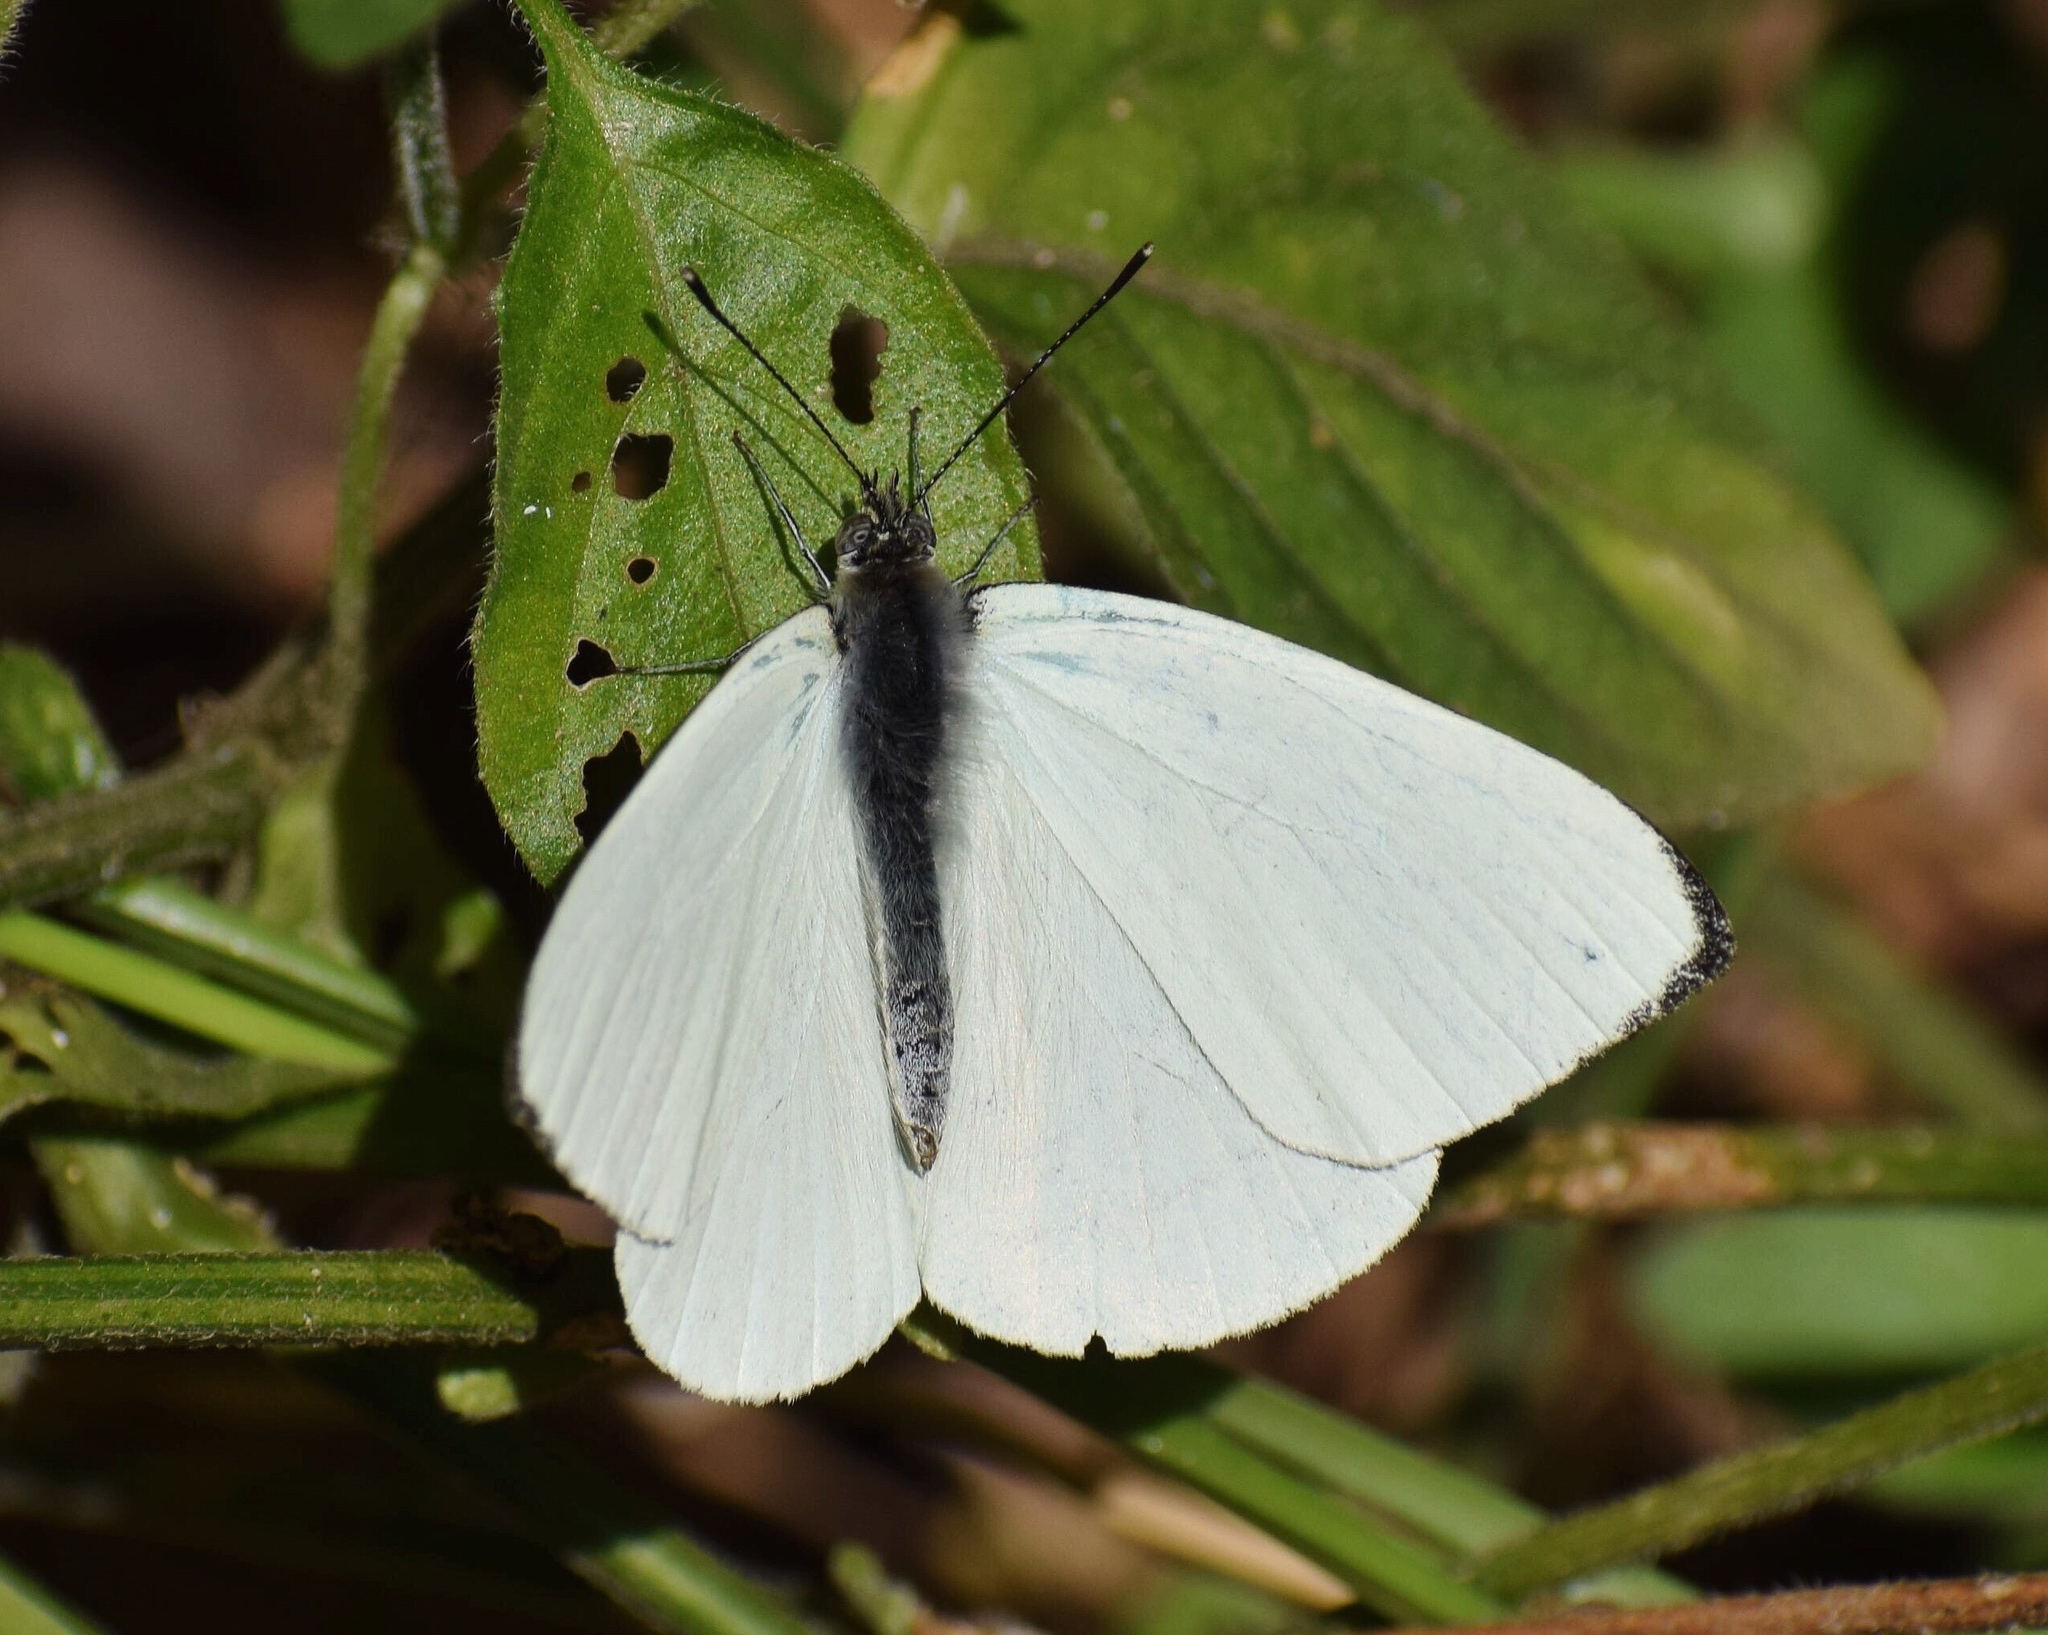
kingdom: Animalia
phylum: Arthropoda
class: Insecta
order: Lepidoptera
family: Pieridae
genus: Dixeia
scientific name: Dixeia pigea
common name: Ant-heap small white
